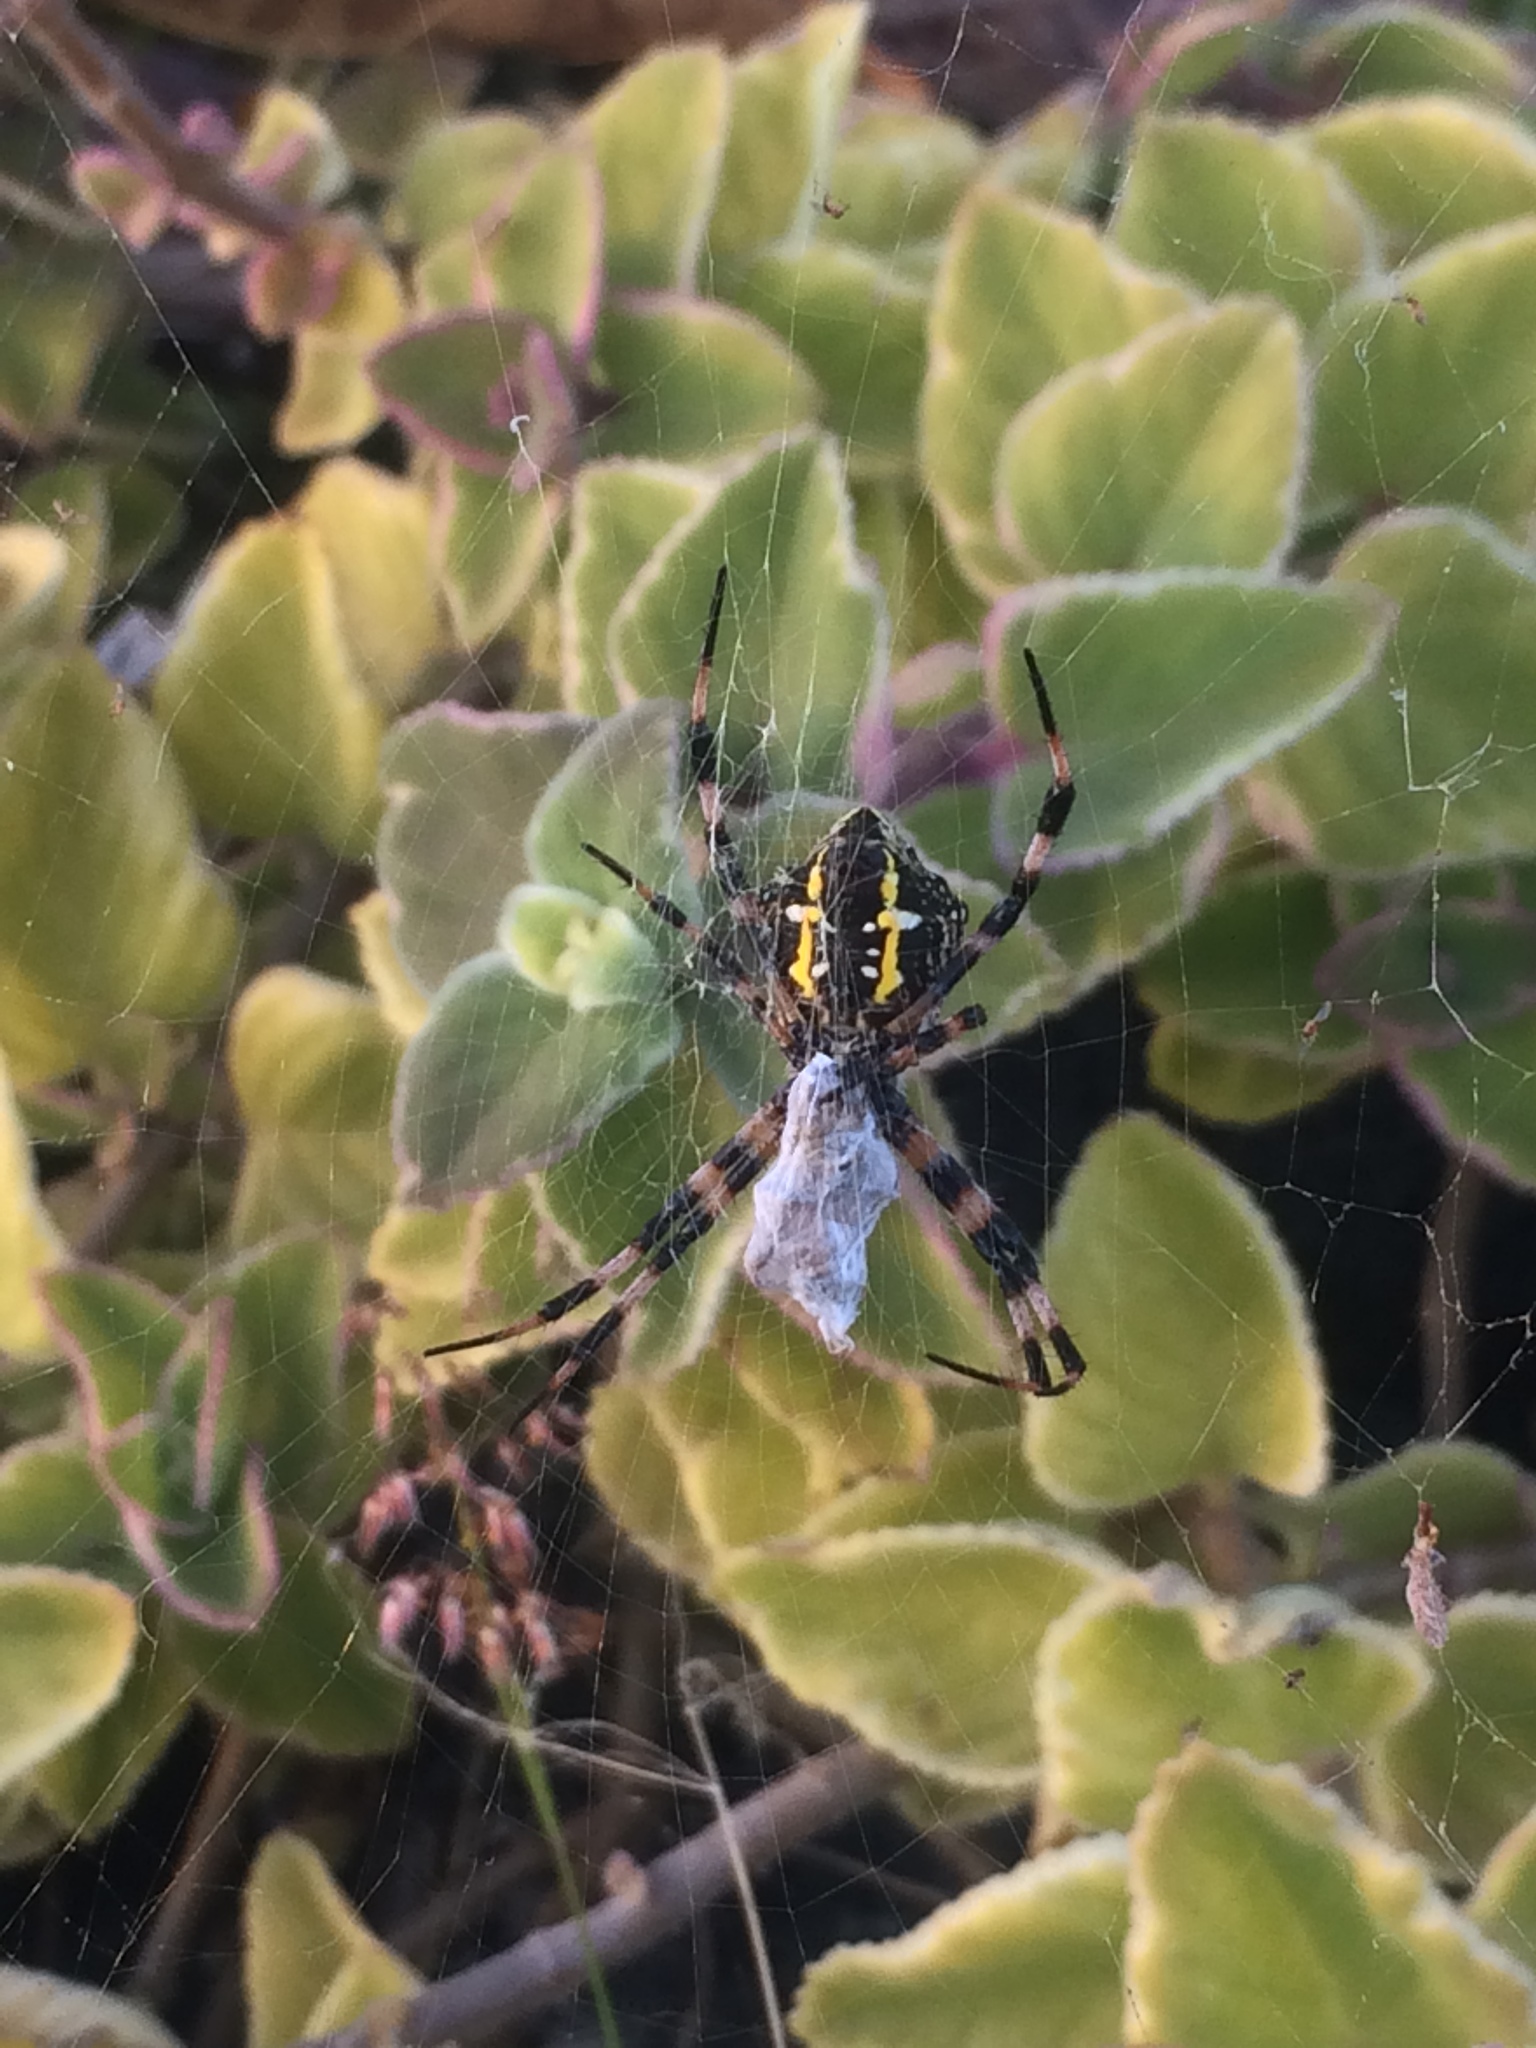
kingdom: Animalia
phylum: Arthropoda
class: Arachnida
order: Araneae
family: Araneidae
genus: Argiope
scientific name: Argiope appensa
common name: Garden spider
